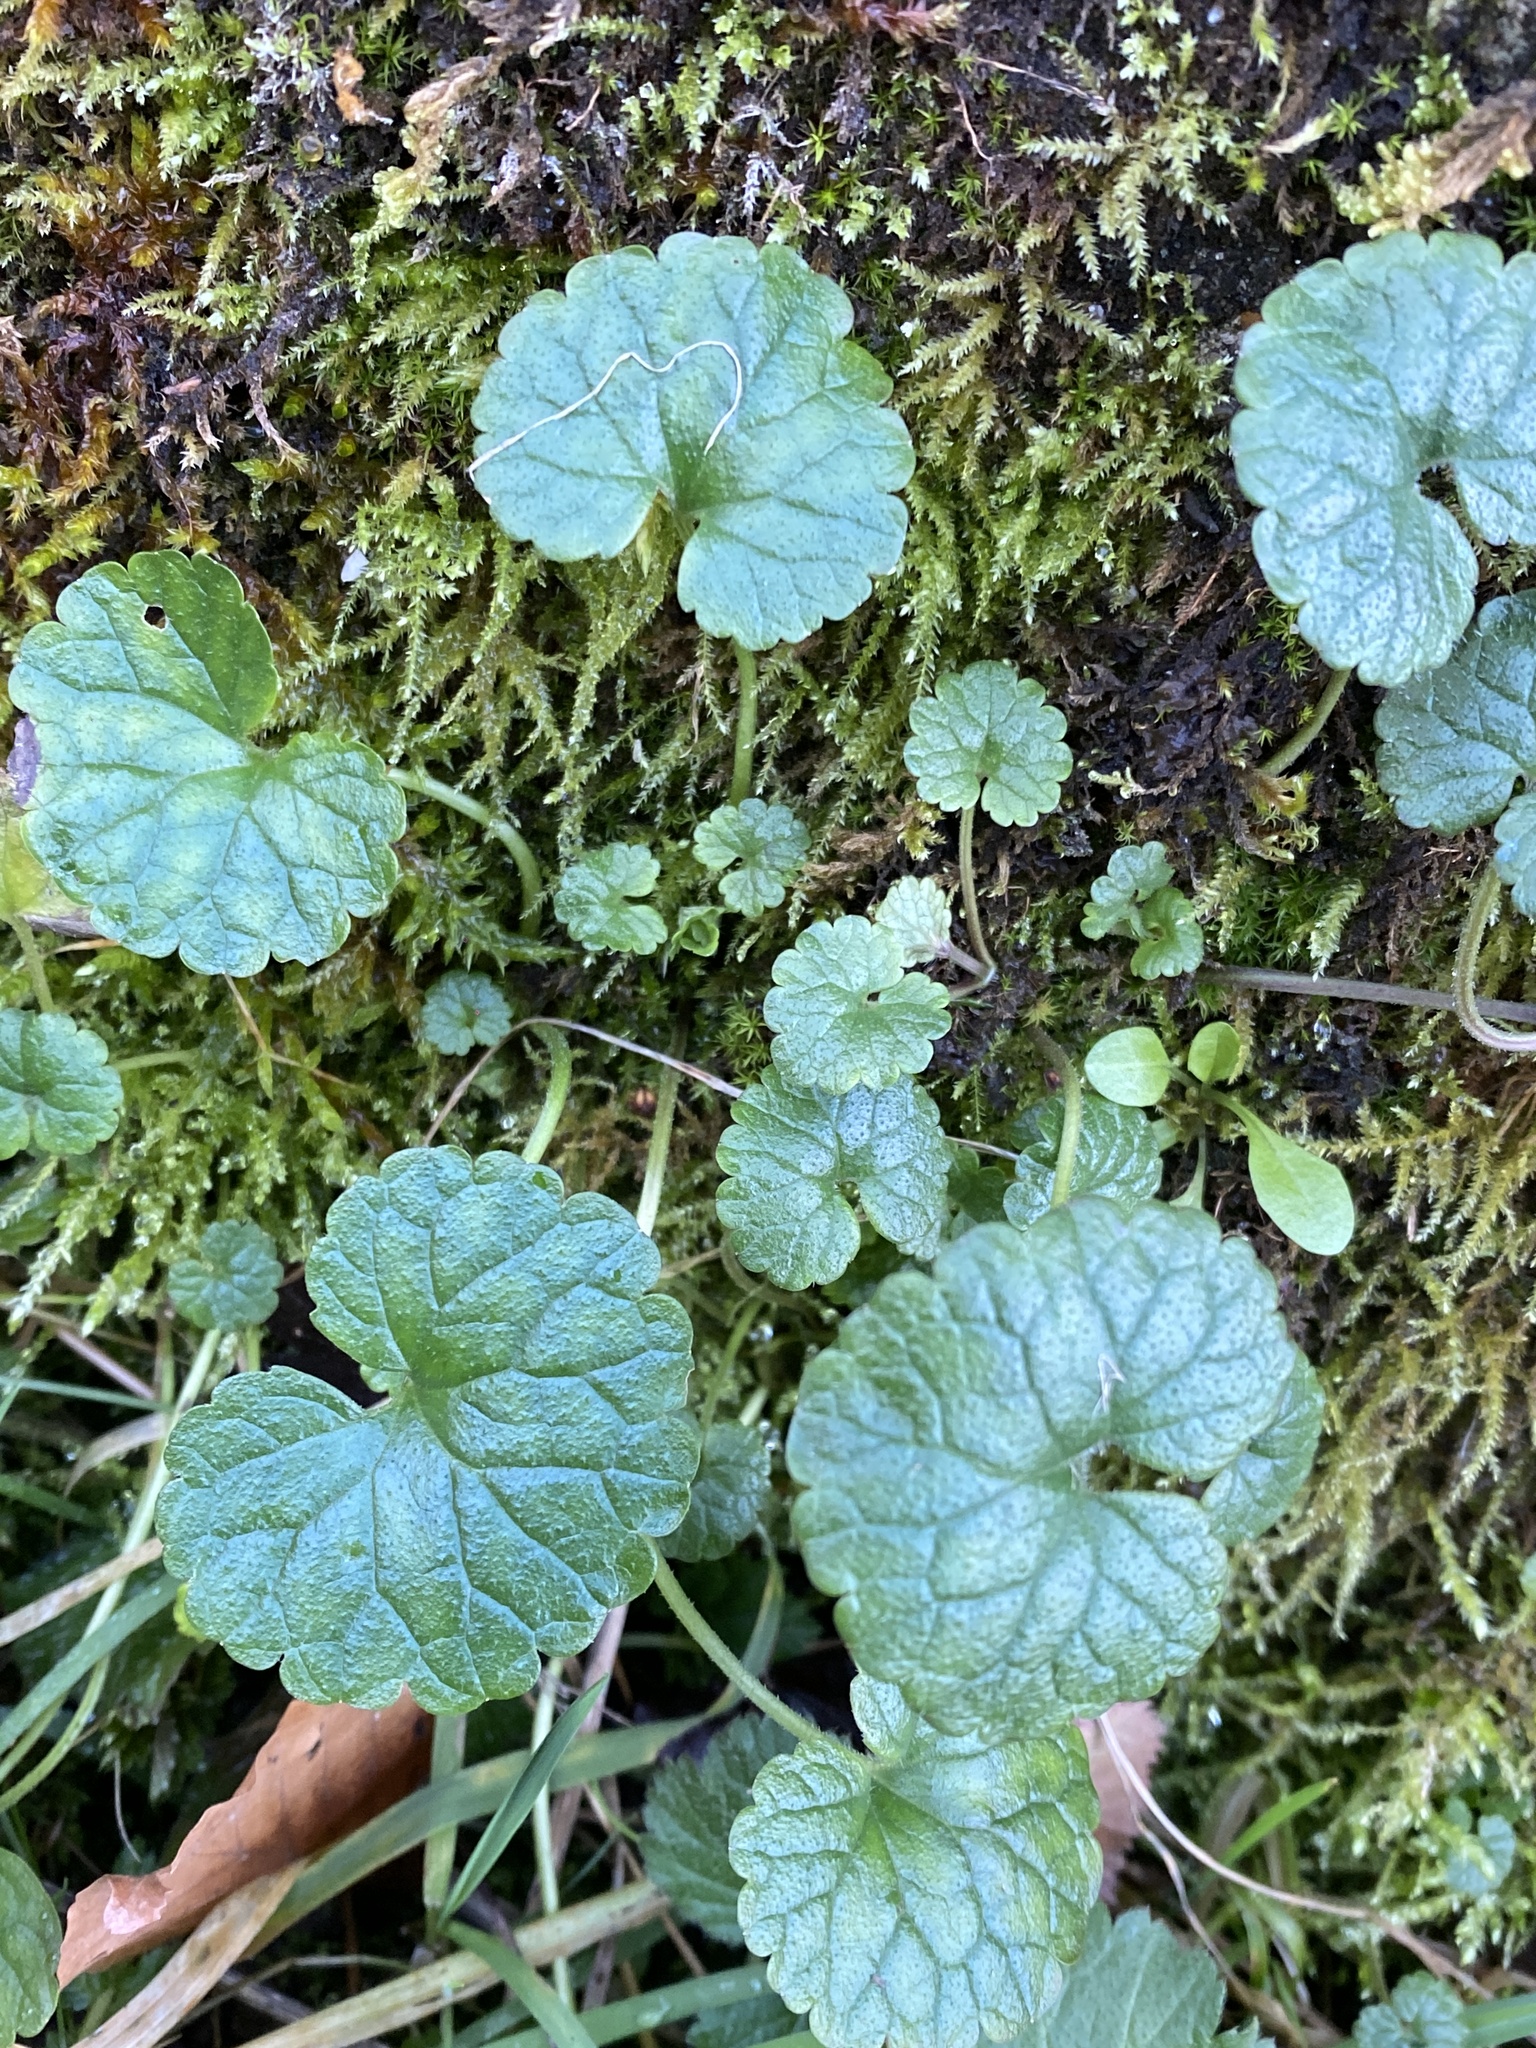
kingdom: Plantae
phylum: Tracheophyta
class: Magnoliopsida
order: Lamiales
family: Lamiaceae
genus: Glechoma
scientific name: Glechoma hederacea
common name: Ground ivy
